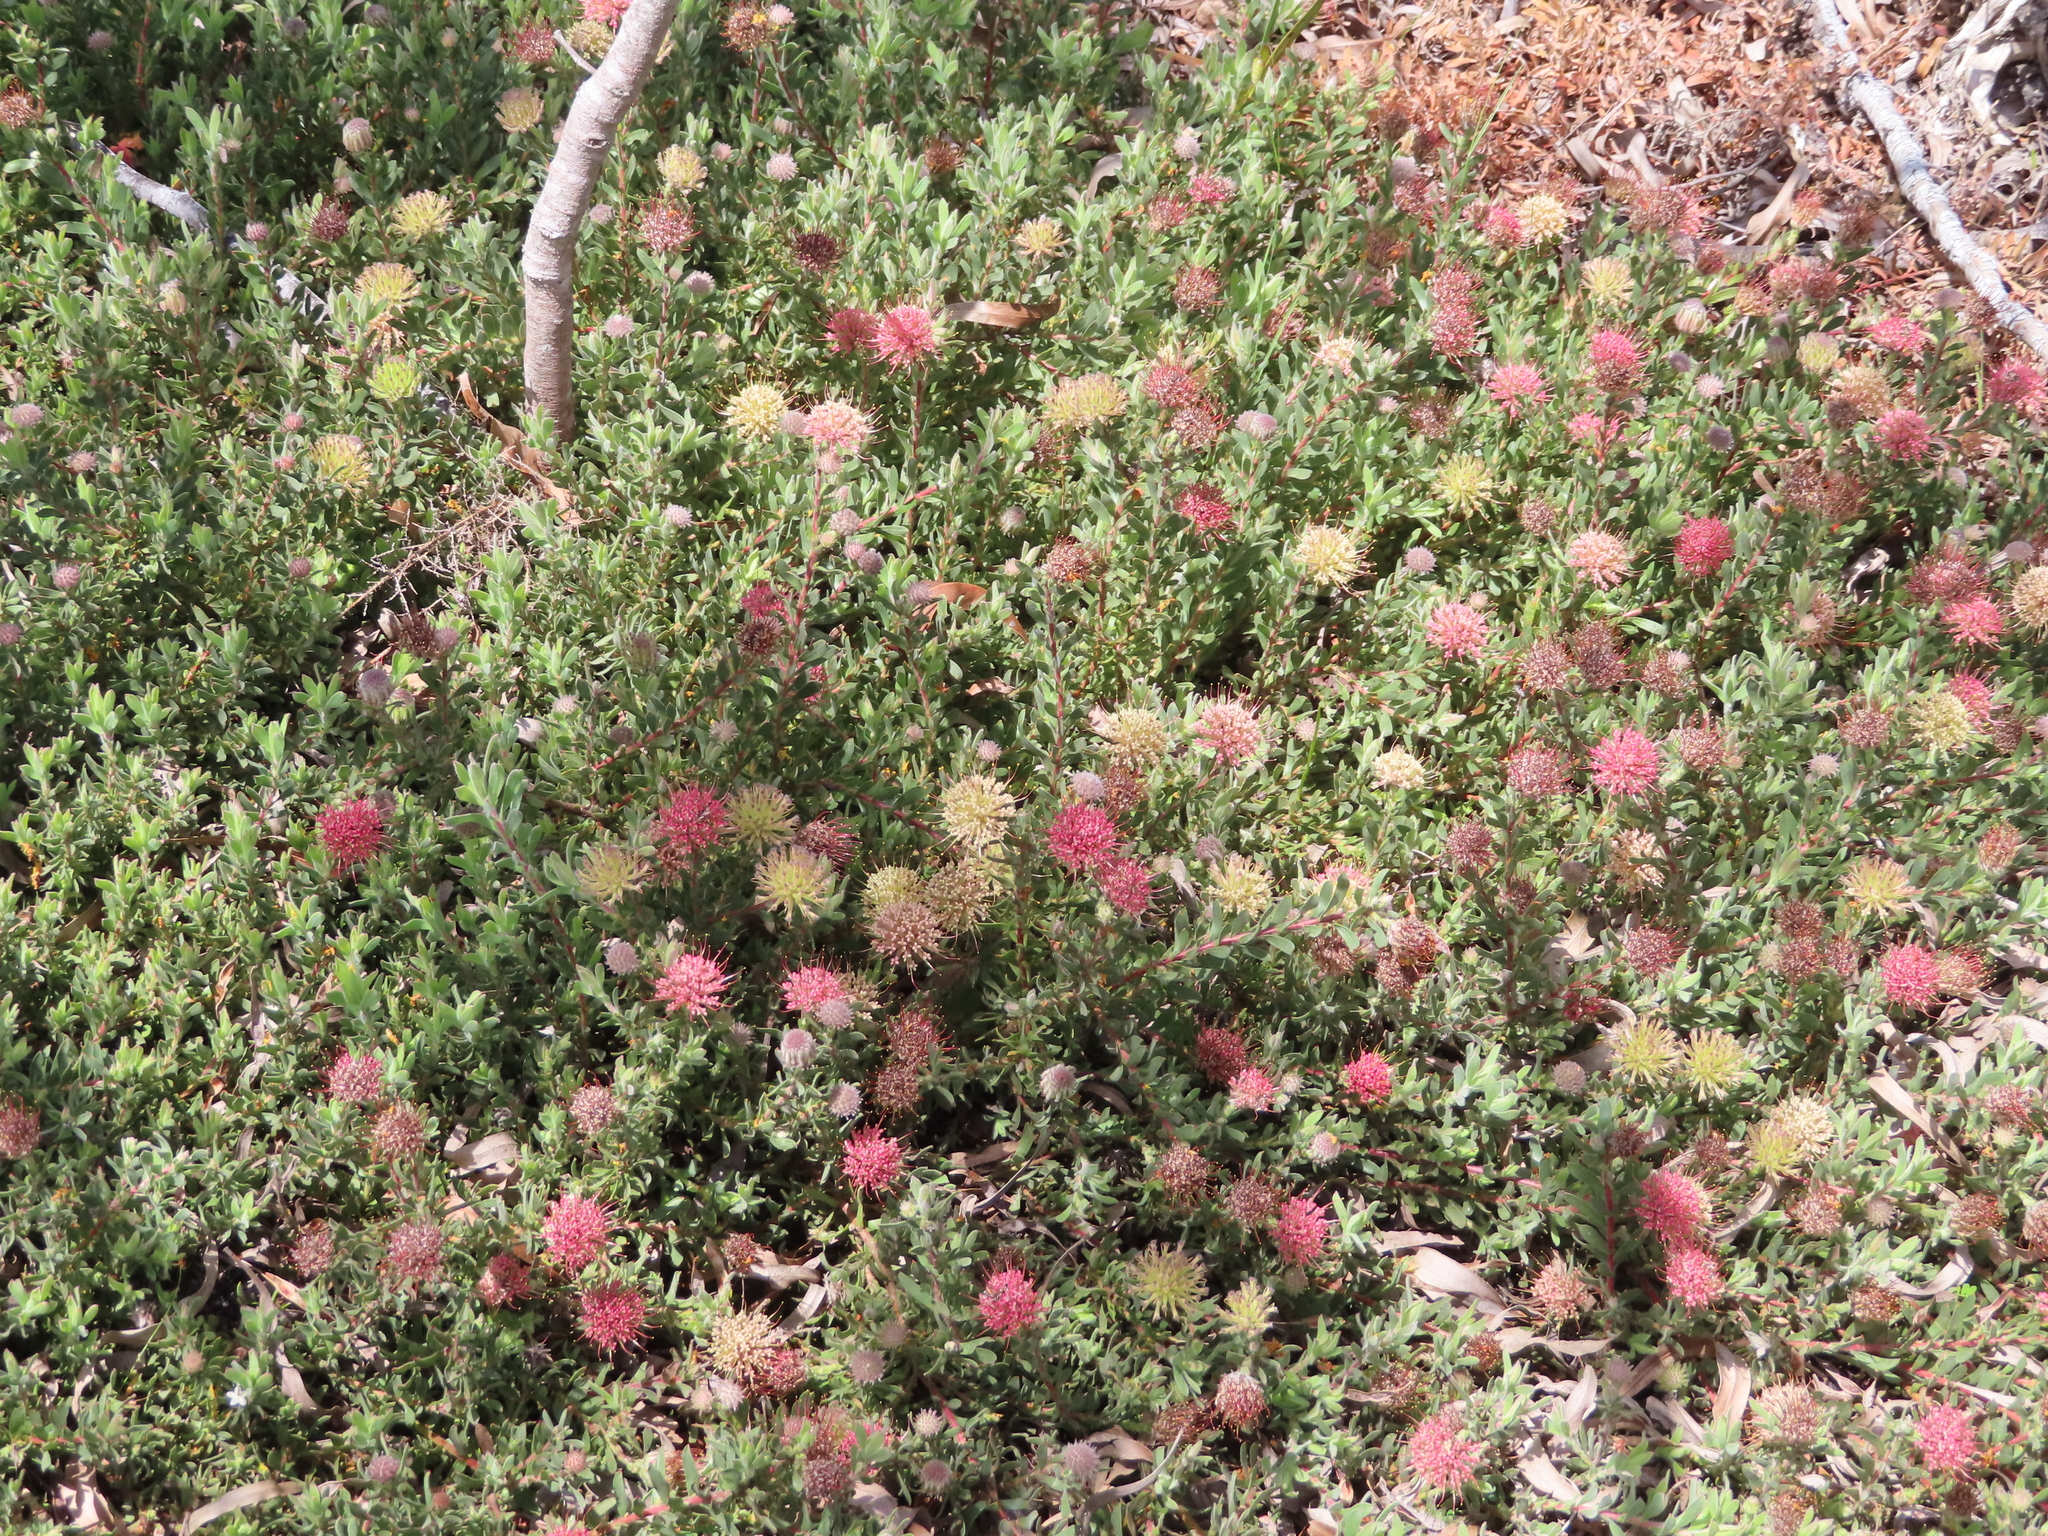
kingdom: Plantae
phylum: Tracheophyta
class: Magnoliopsida
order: Proteales
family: Proteaceae
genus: Leucospermum
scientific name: Leucospermum heterophyllum
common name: Trident pincushion
